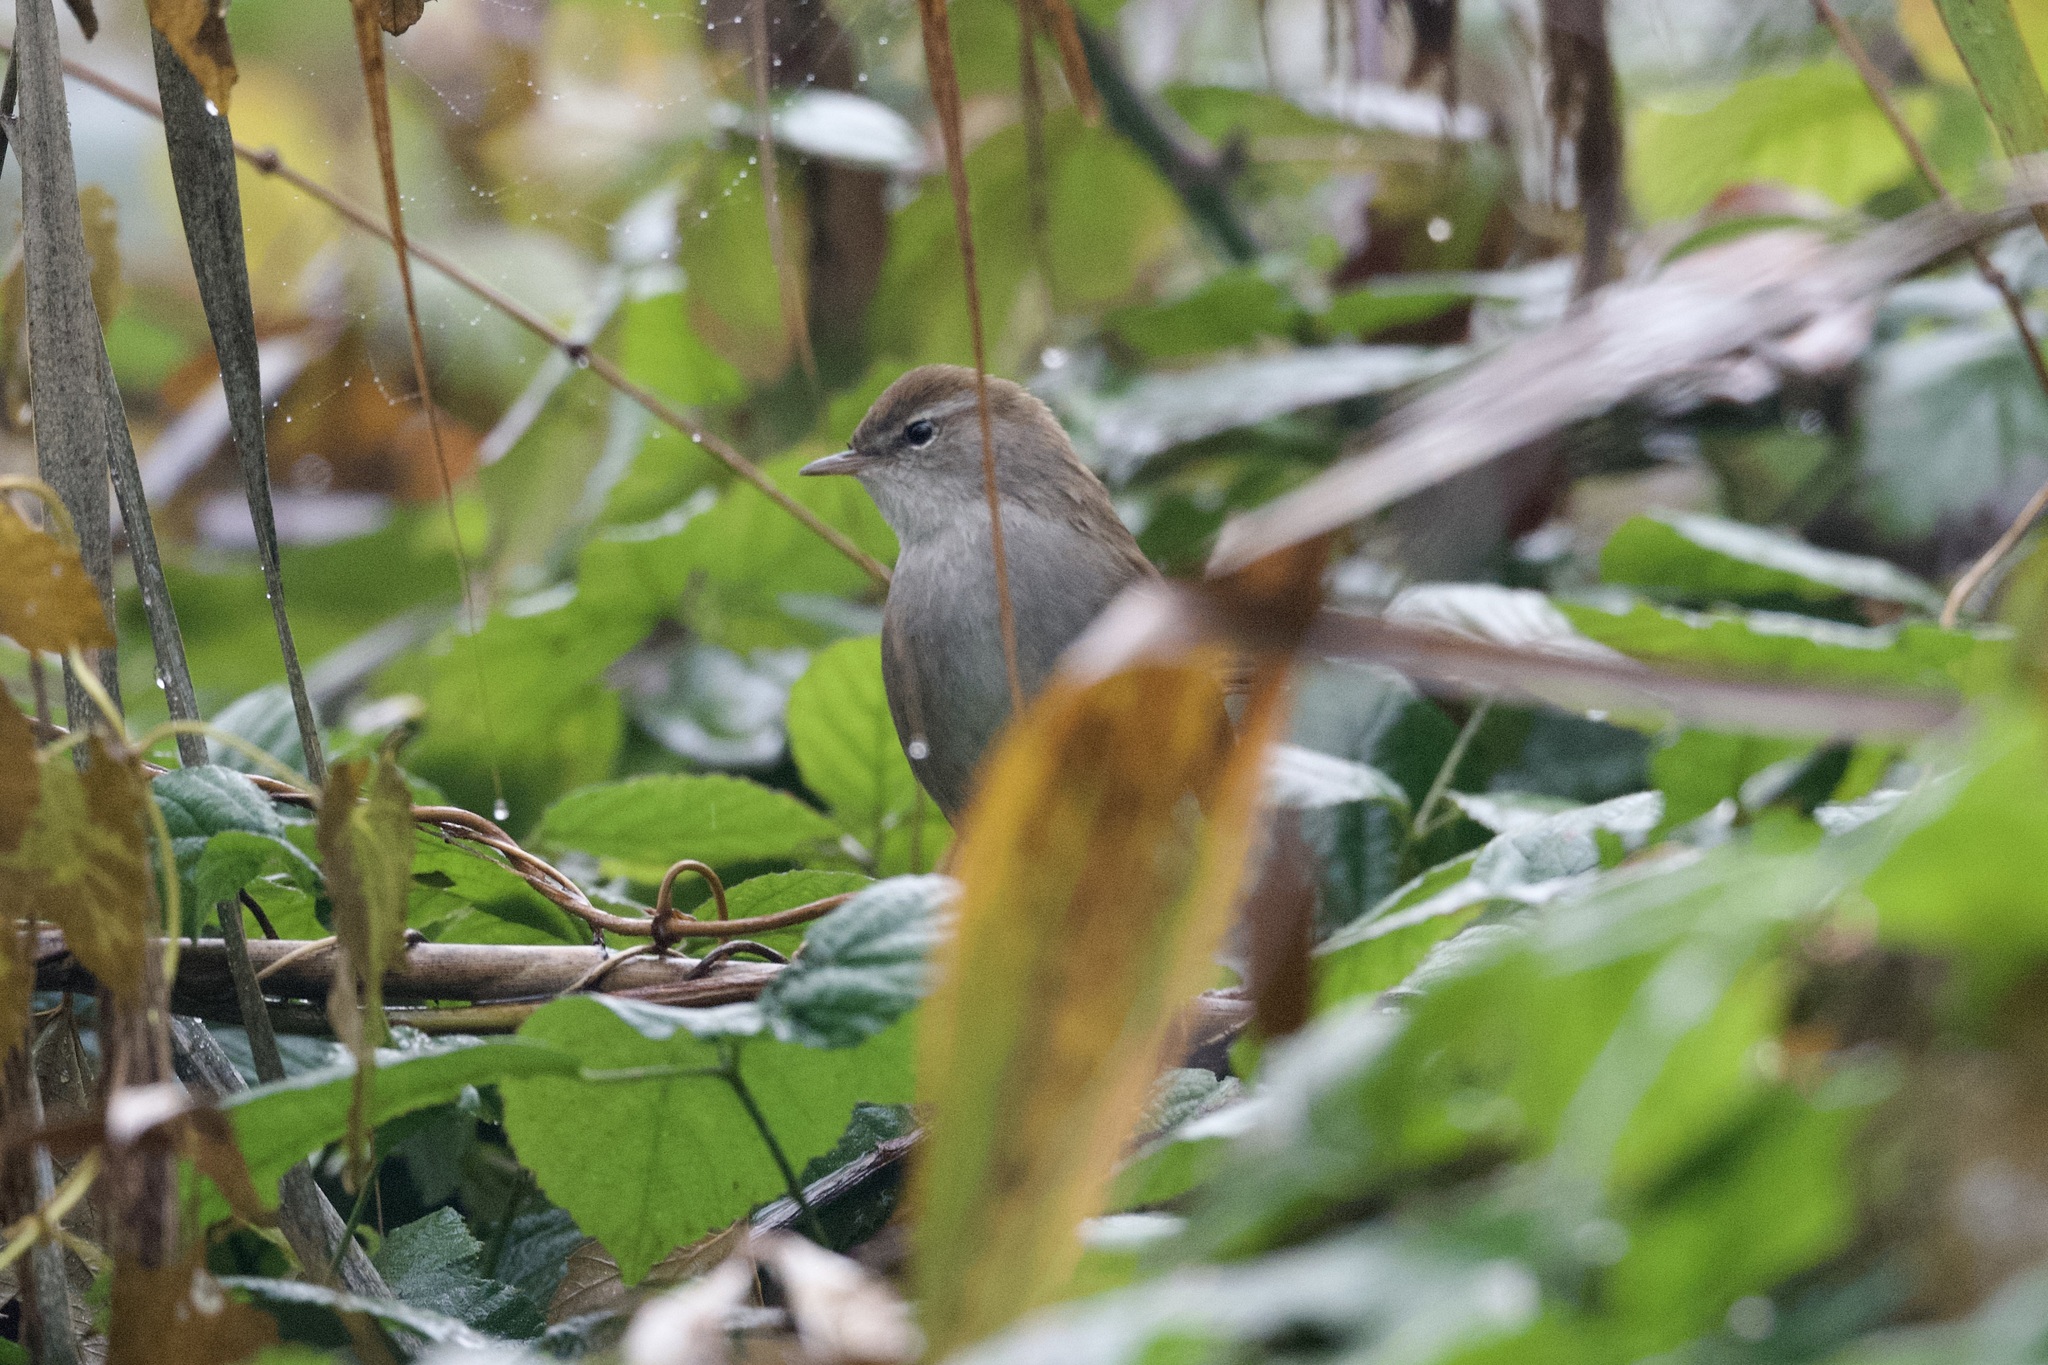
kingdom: Animalia
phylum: Chordata
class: Aves
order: Passeriformes
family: Cettiidae
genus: Cettia
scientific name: Cettia cetti
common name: Cetti's warbler
